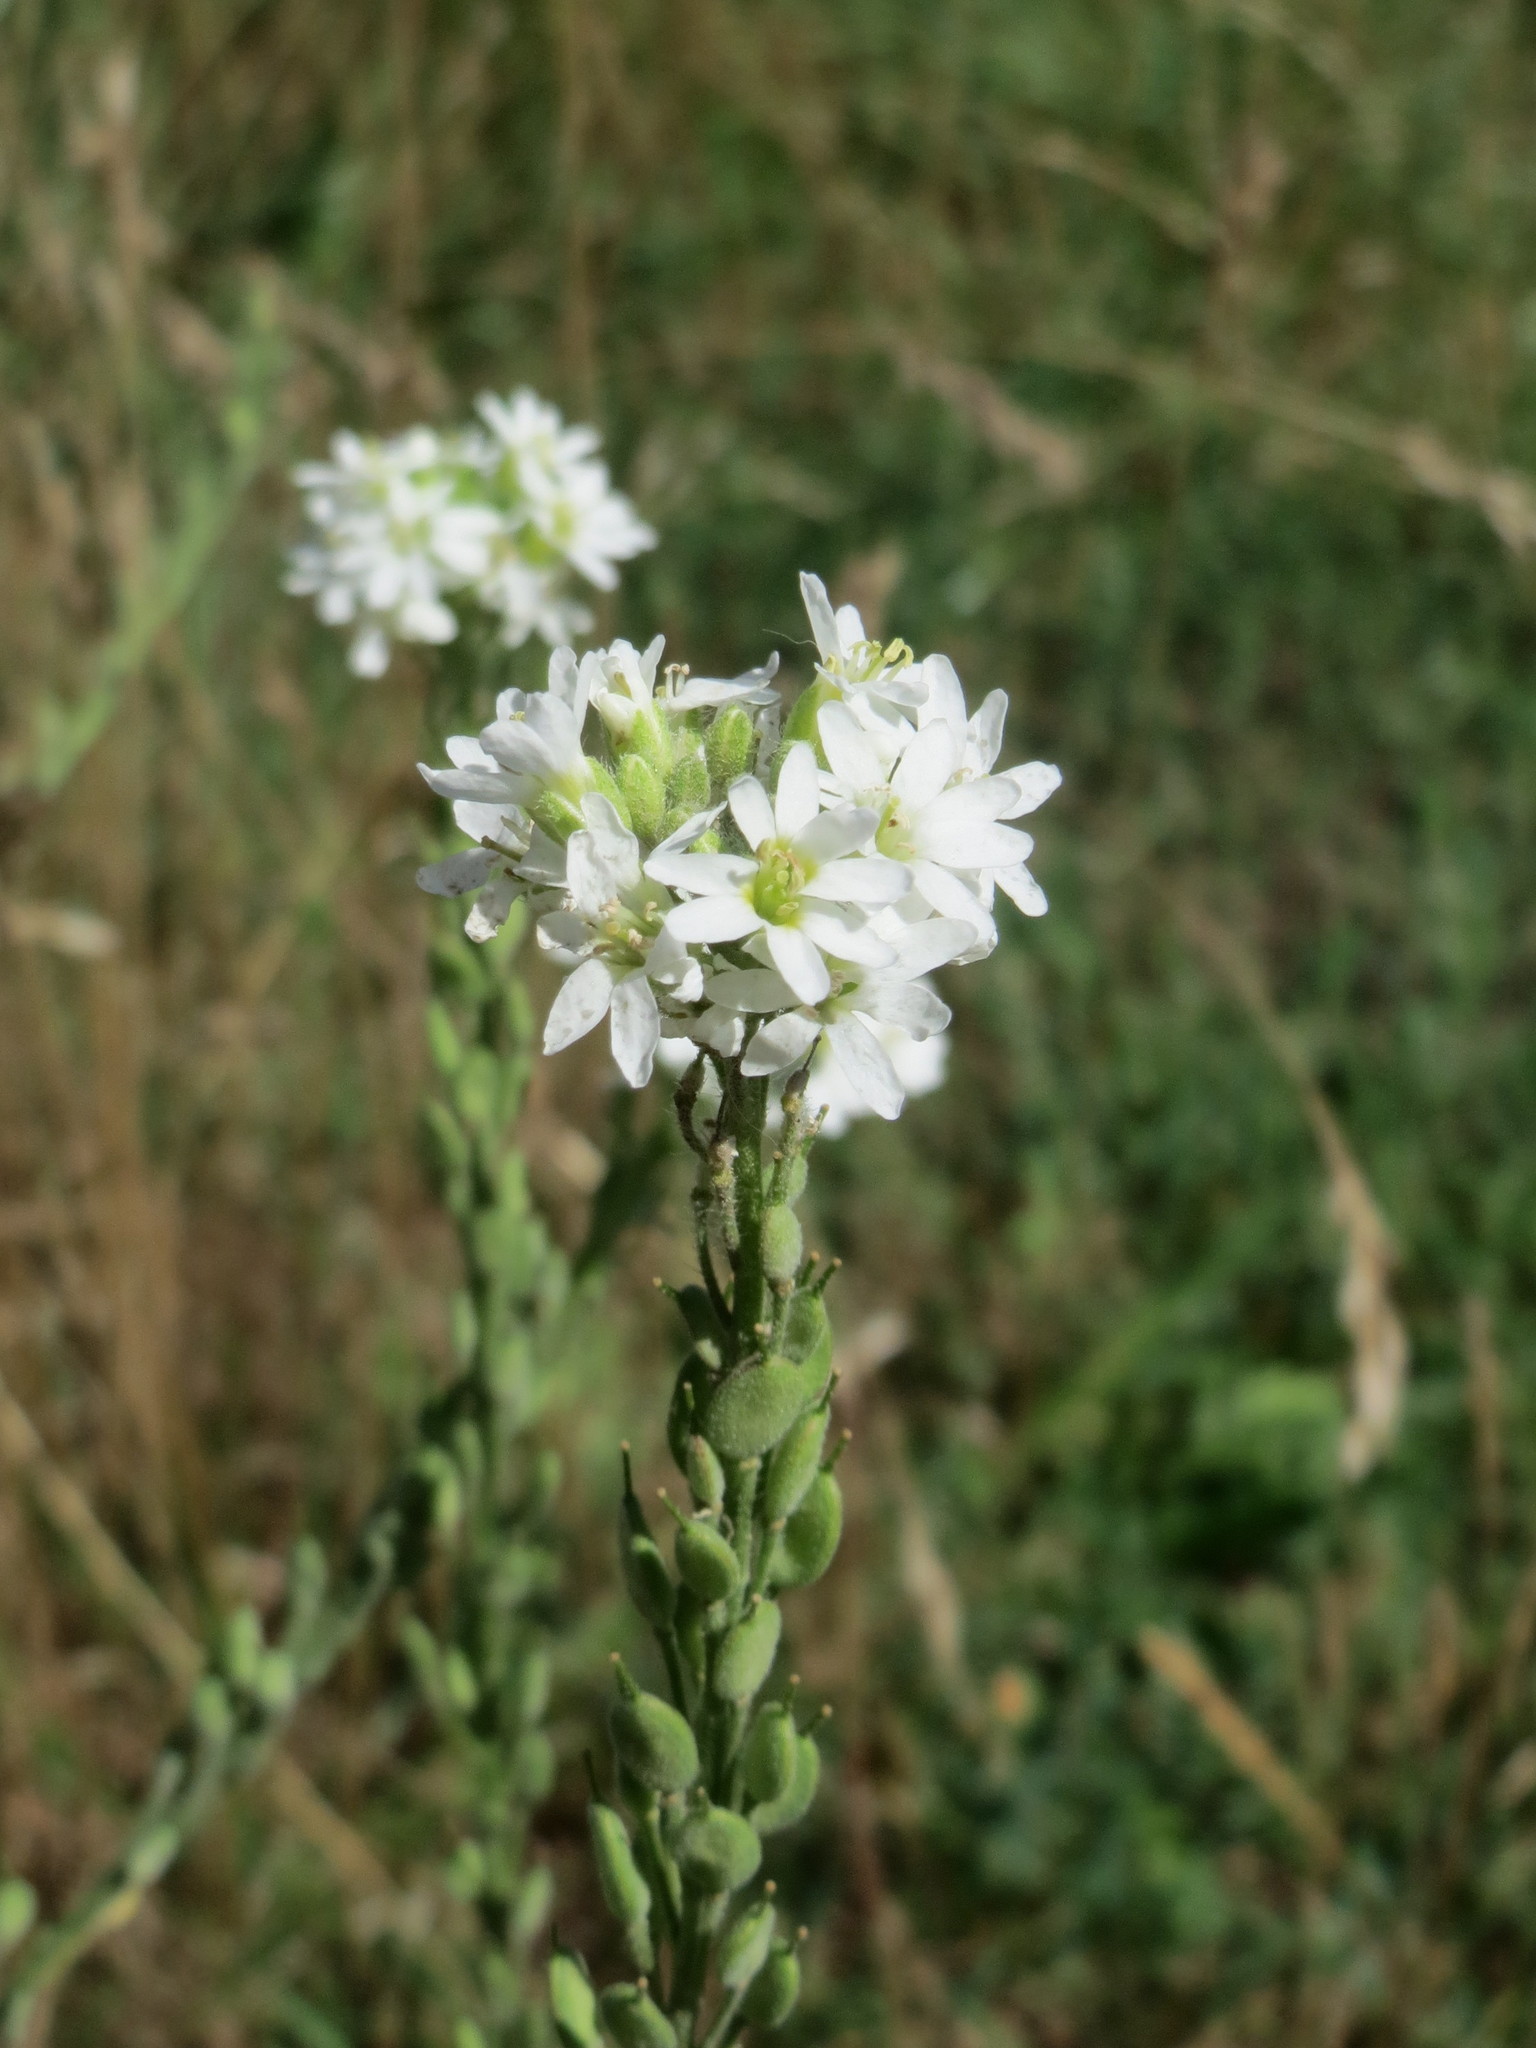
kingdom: Plantae
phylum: Tracheophyta
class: Magnoliopsida
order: Brassicales
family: Brassicaceae
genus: Berteroa
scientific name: Berteroa incana
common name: Hoary alison
